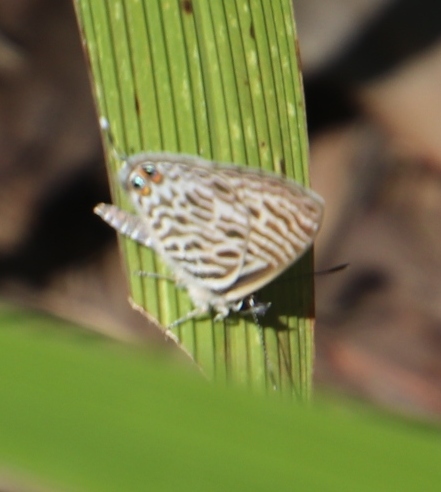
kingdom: Animalia
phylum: Arthropoda
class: Insecta
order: Lepidoptera
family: Lycaenidae
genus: Leptotes
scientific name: Leptotes
